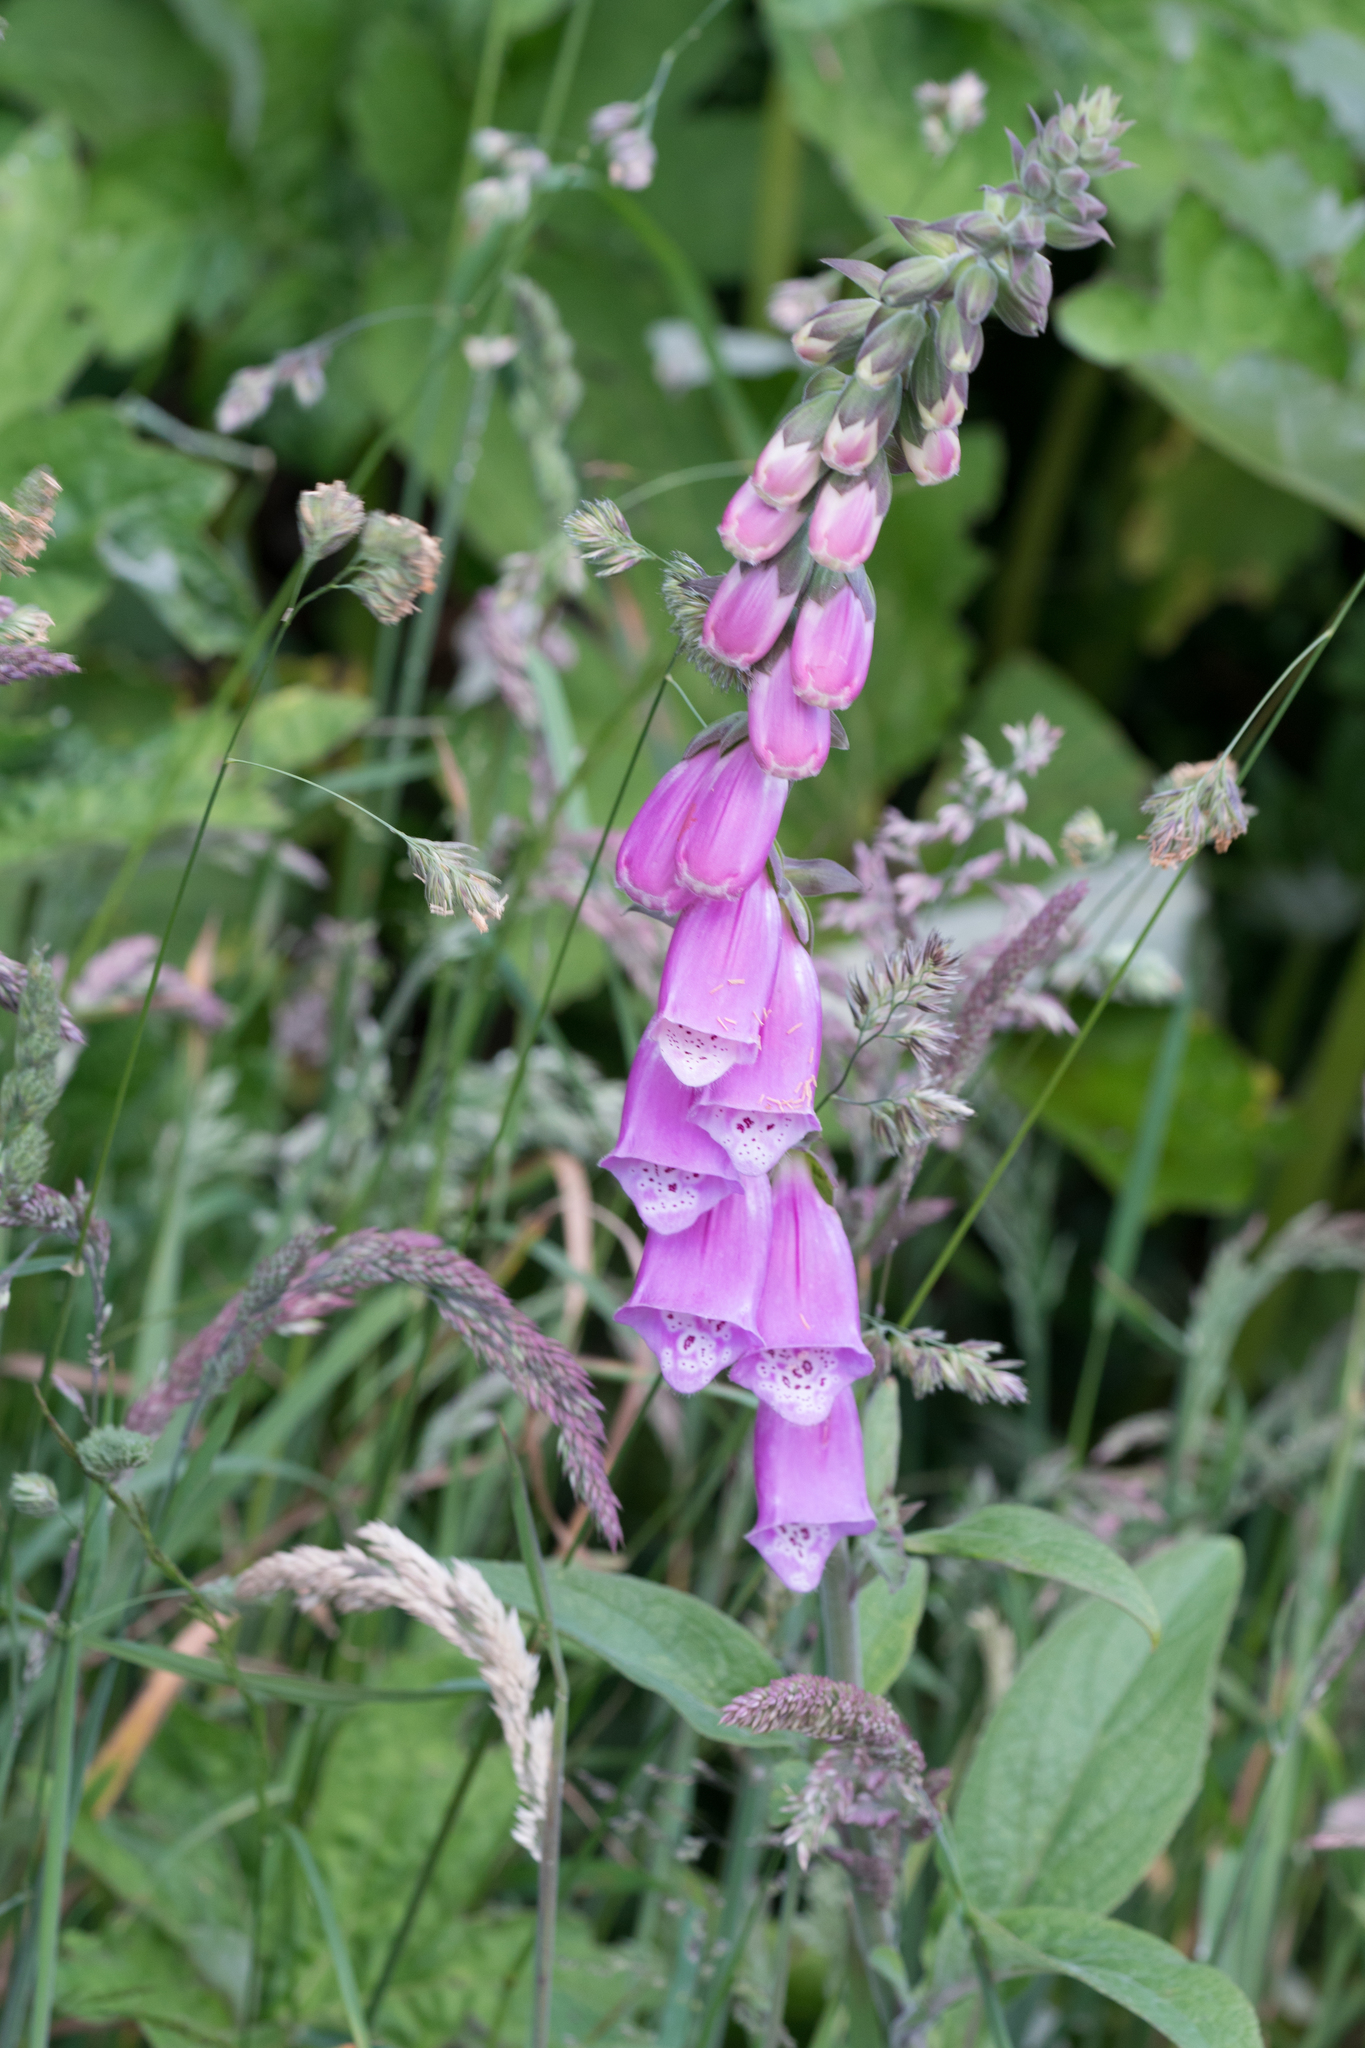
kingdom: Plantae
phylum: Tracheophyta
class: Magnoliopsida
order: Lamiales
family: Plantaginaceae
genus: Digitalis
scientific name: Digitalis purpurea
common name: Foxglove
